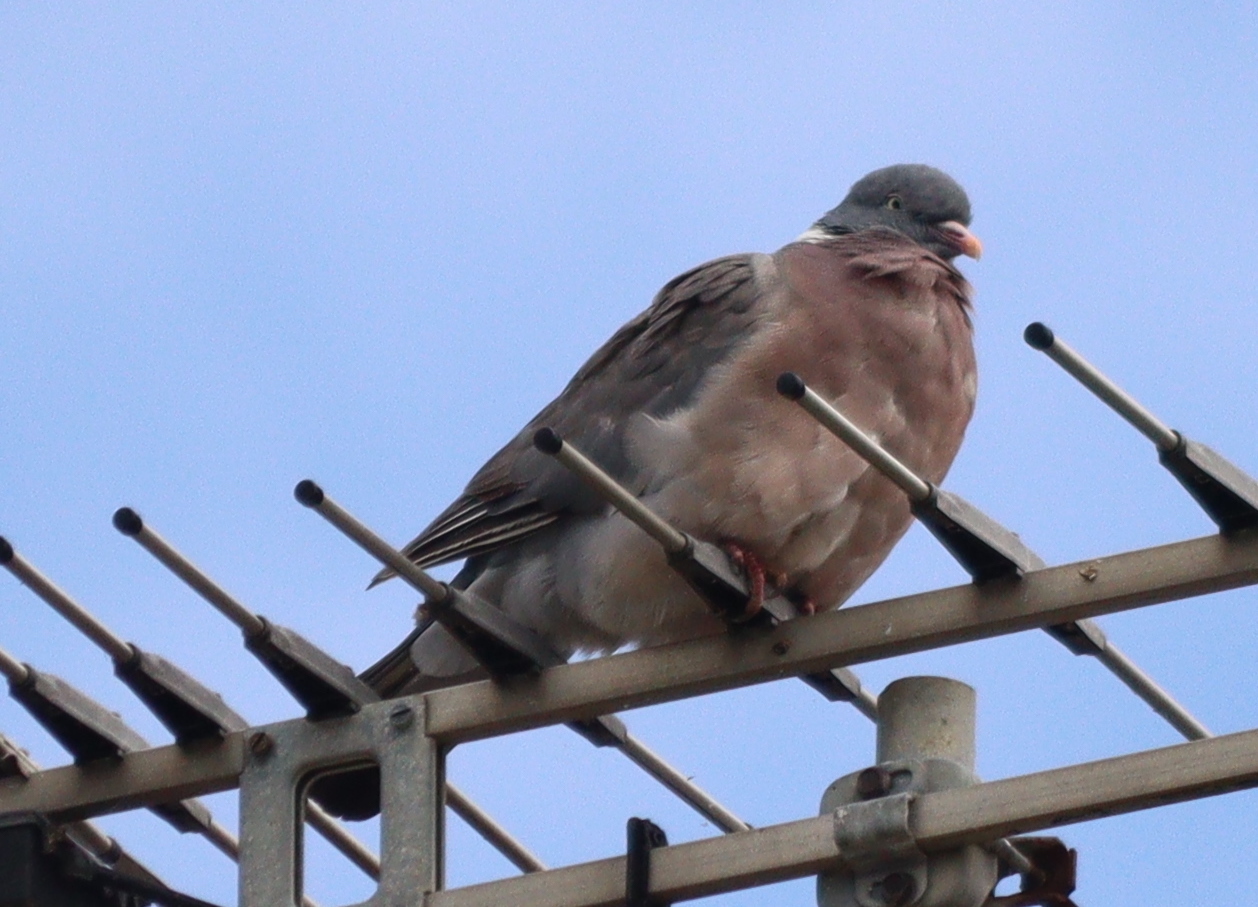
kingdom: Animalia
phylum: Chordata
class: Aves
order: Columbiformes
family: Columbidae
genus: Columba
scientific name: Columba palumbus
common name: Common wood pigeon
